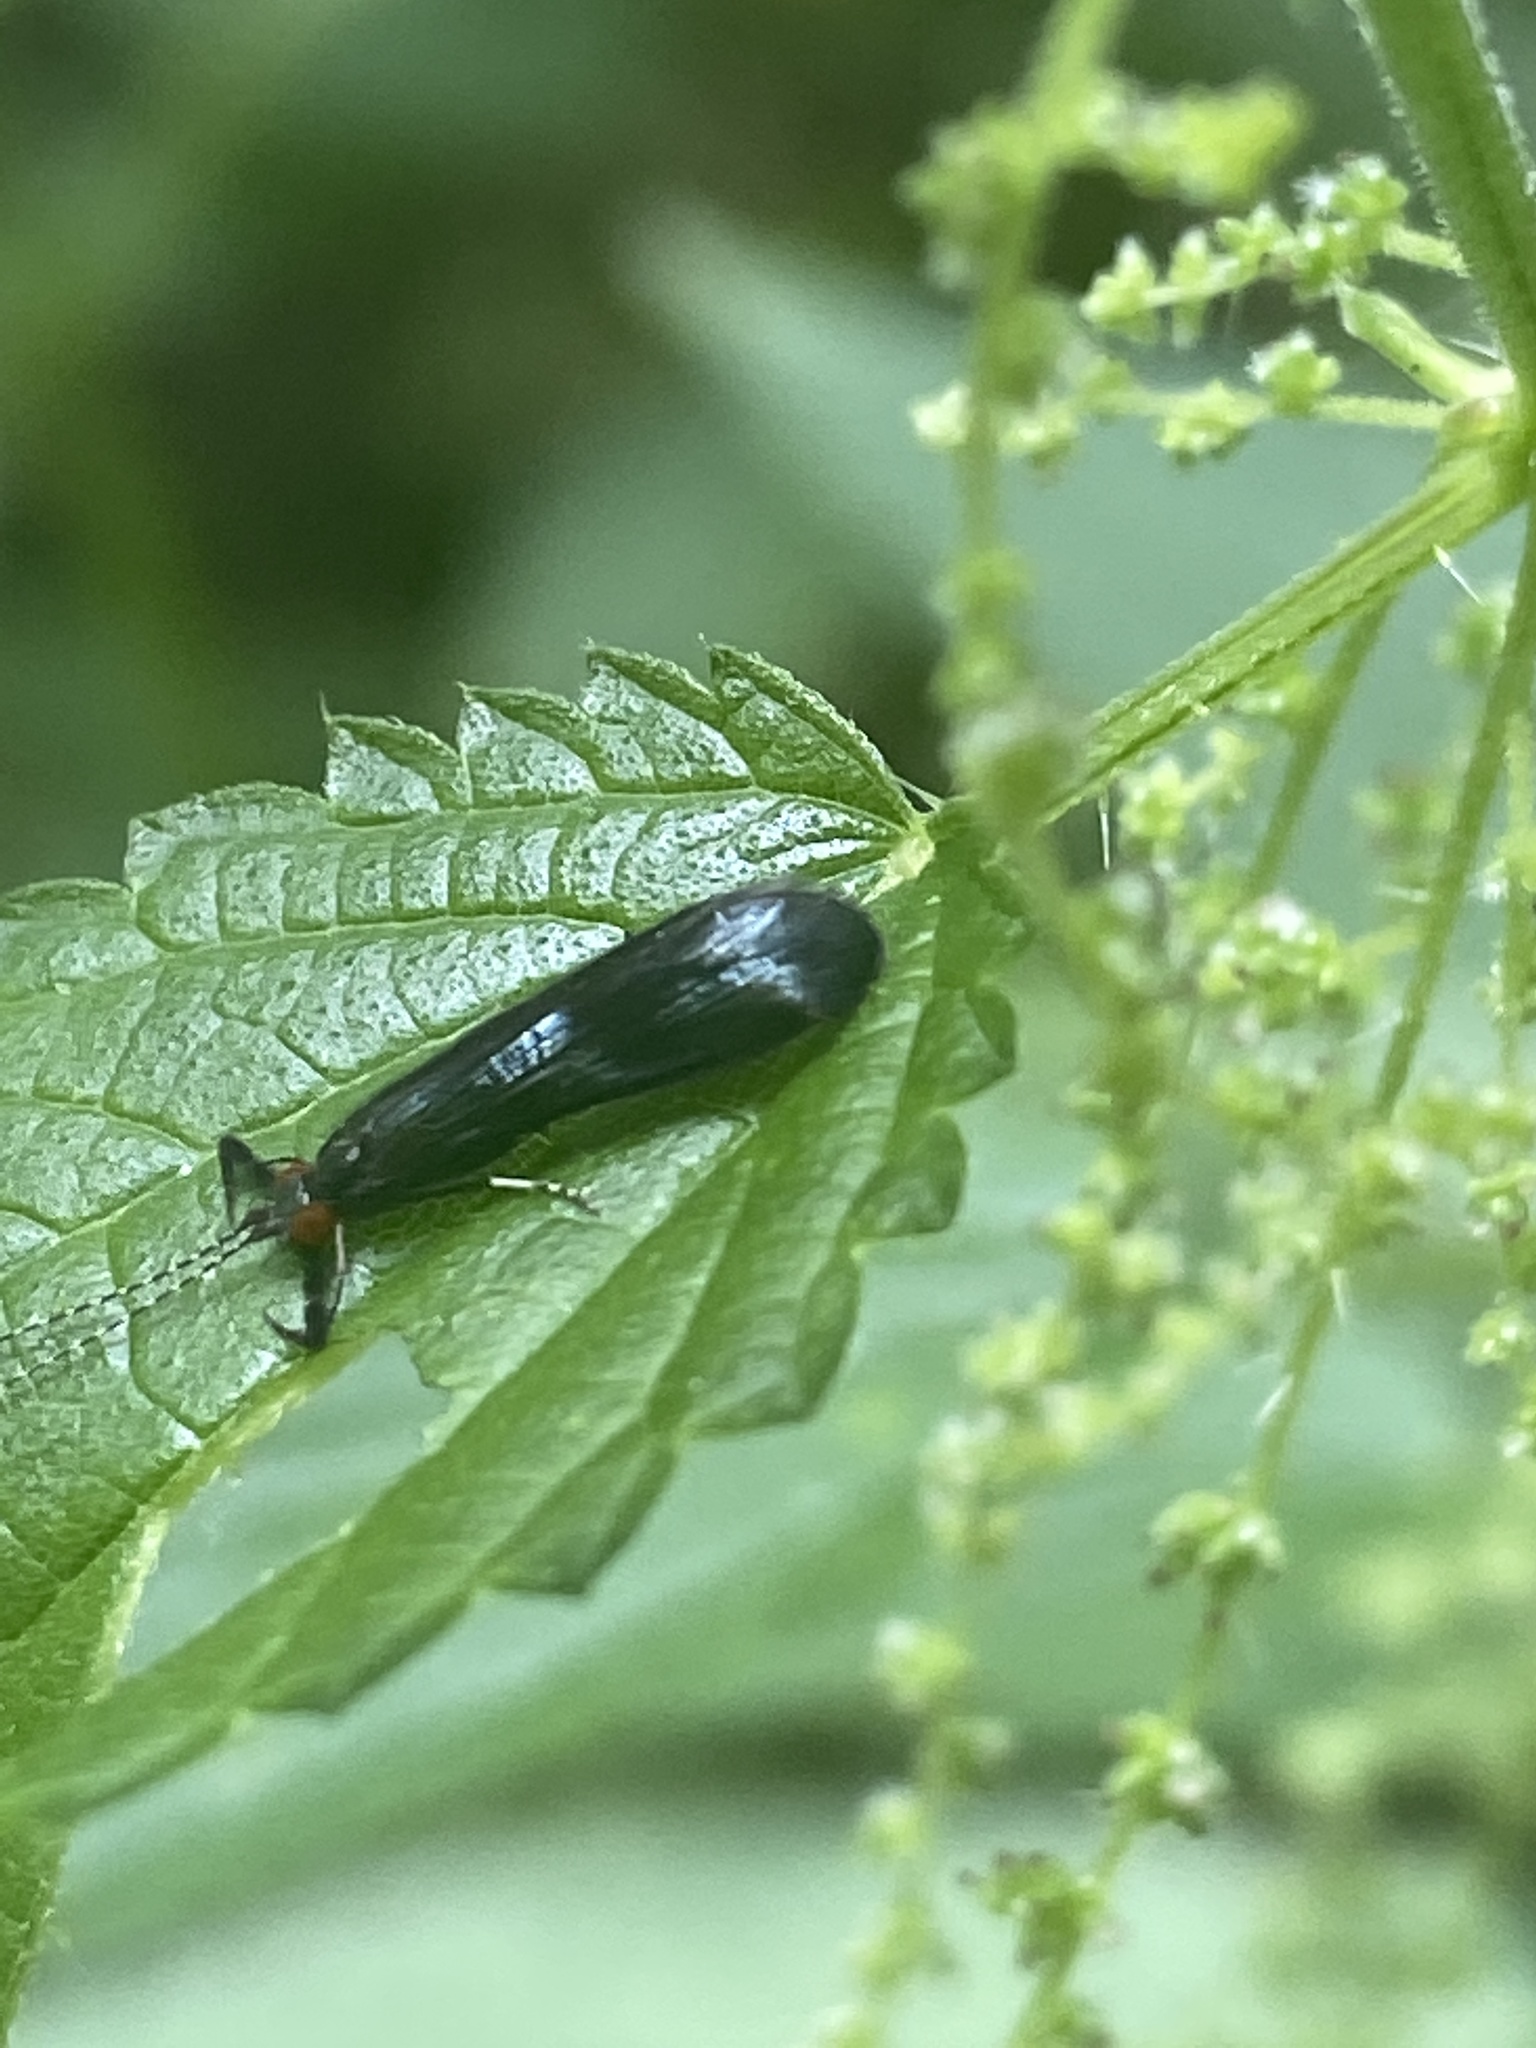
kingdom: Animalia
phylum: Arthropoda
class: Insecta
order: Trichoptera
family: Leptoceridae
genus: Mystacides
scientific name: Mystacides azureus
